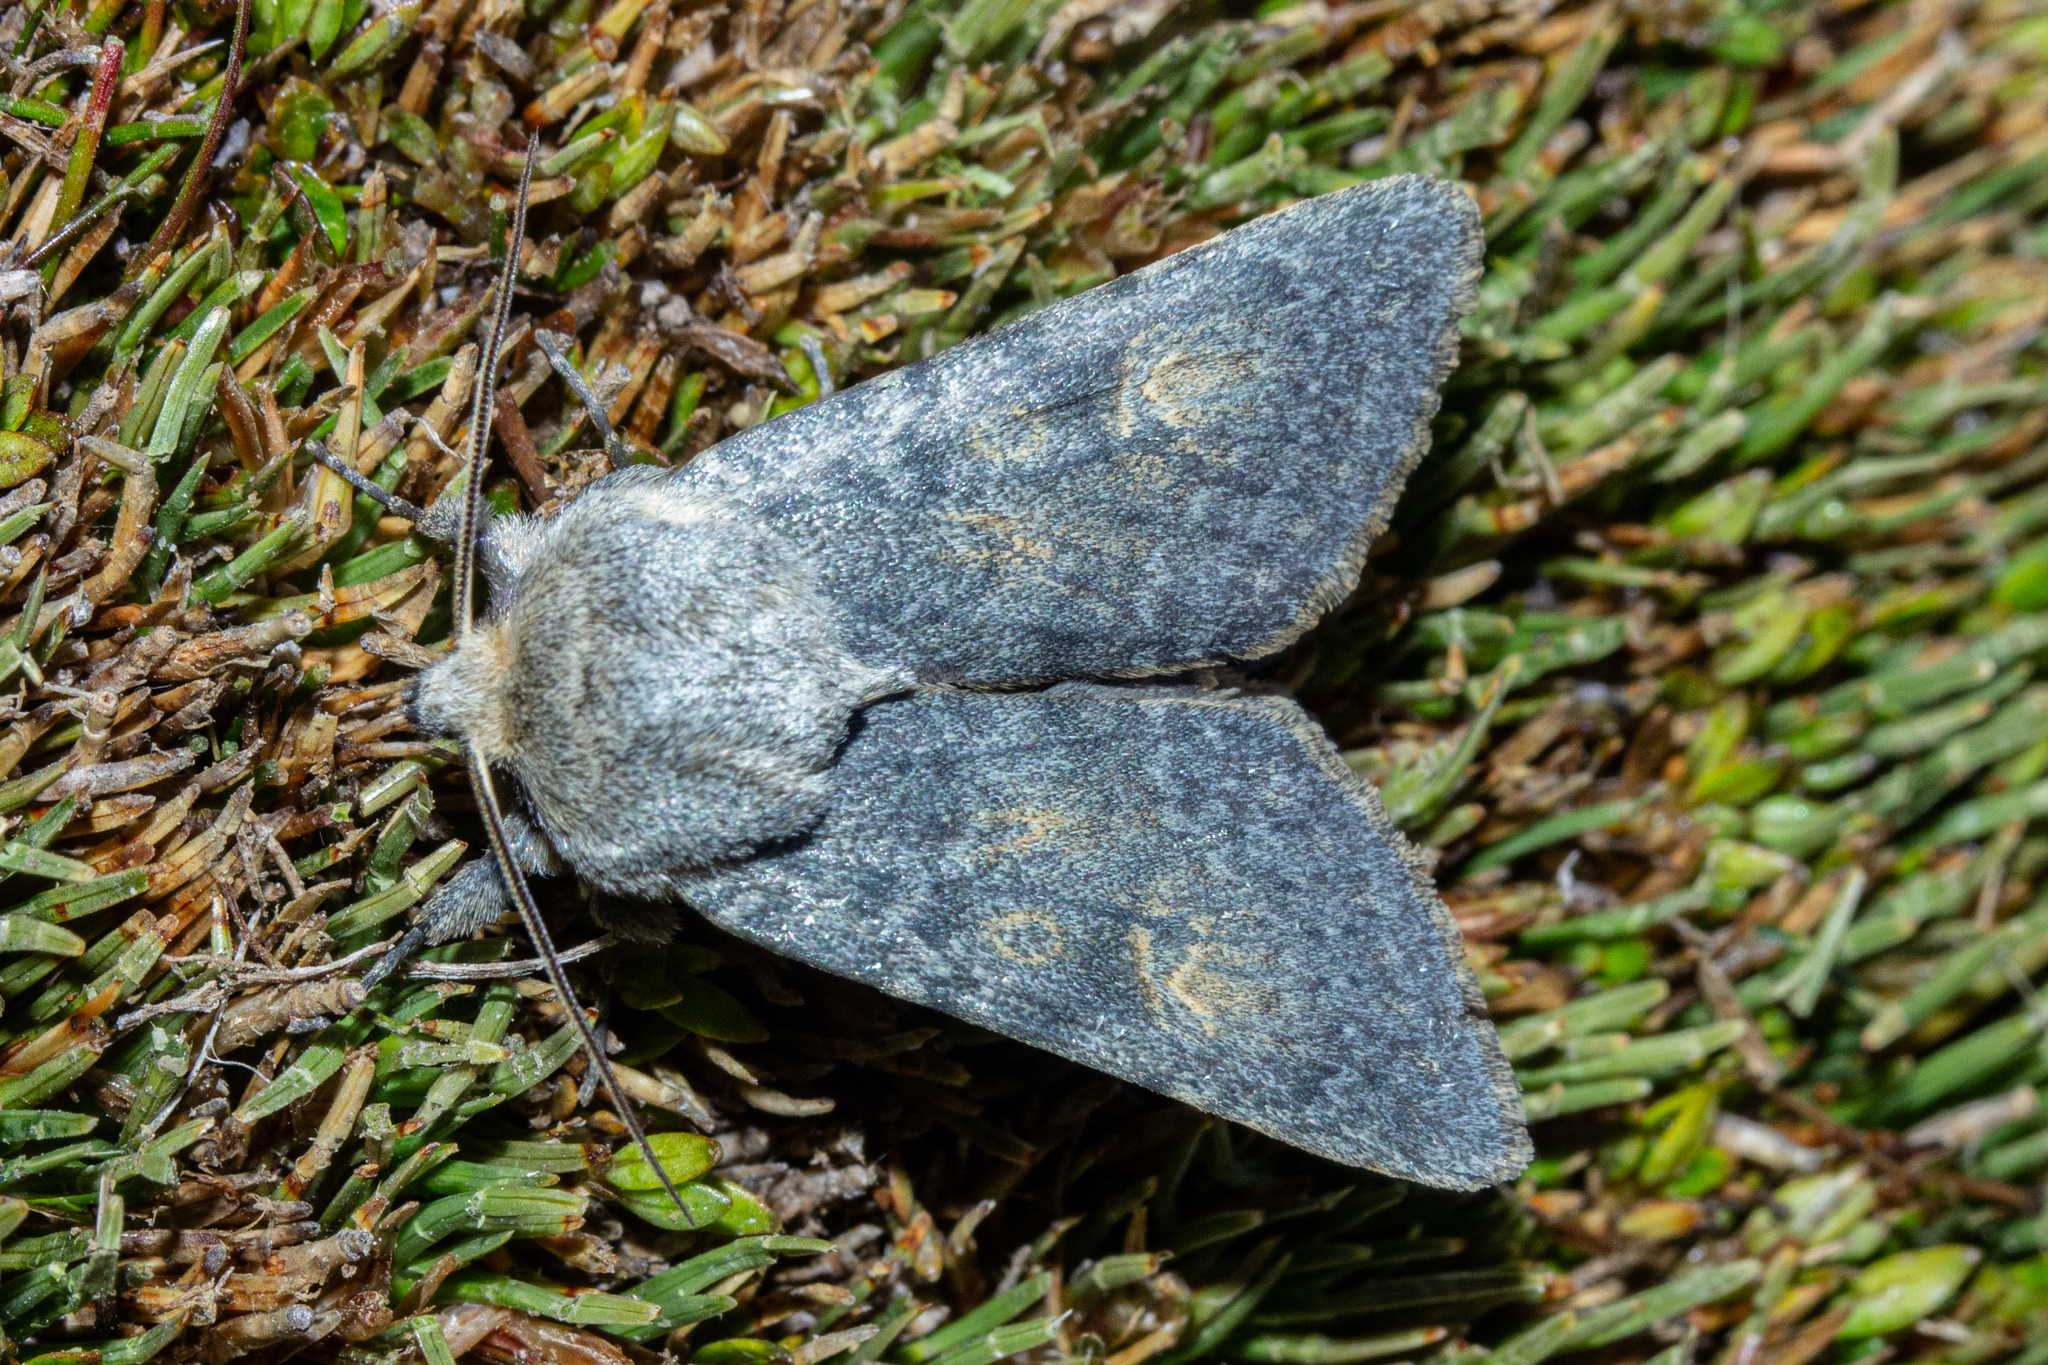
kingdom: Animalia
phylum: Arthropoda
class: Insecta
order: Lepidoptera
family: Noctuidae
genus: Ichneutica
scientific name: Ichneutica
